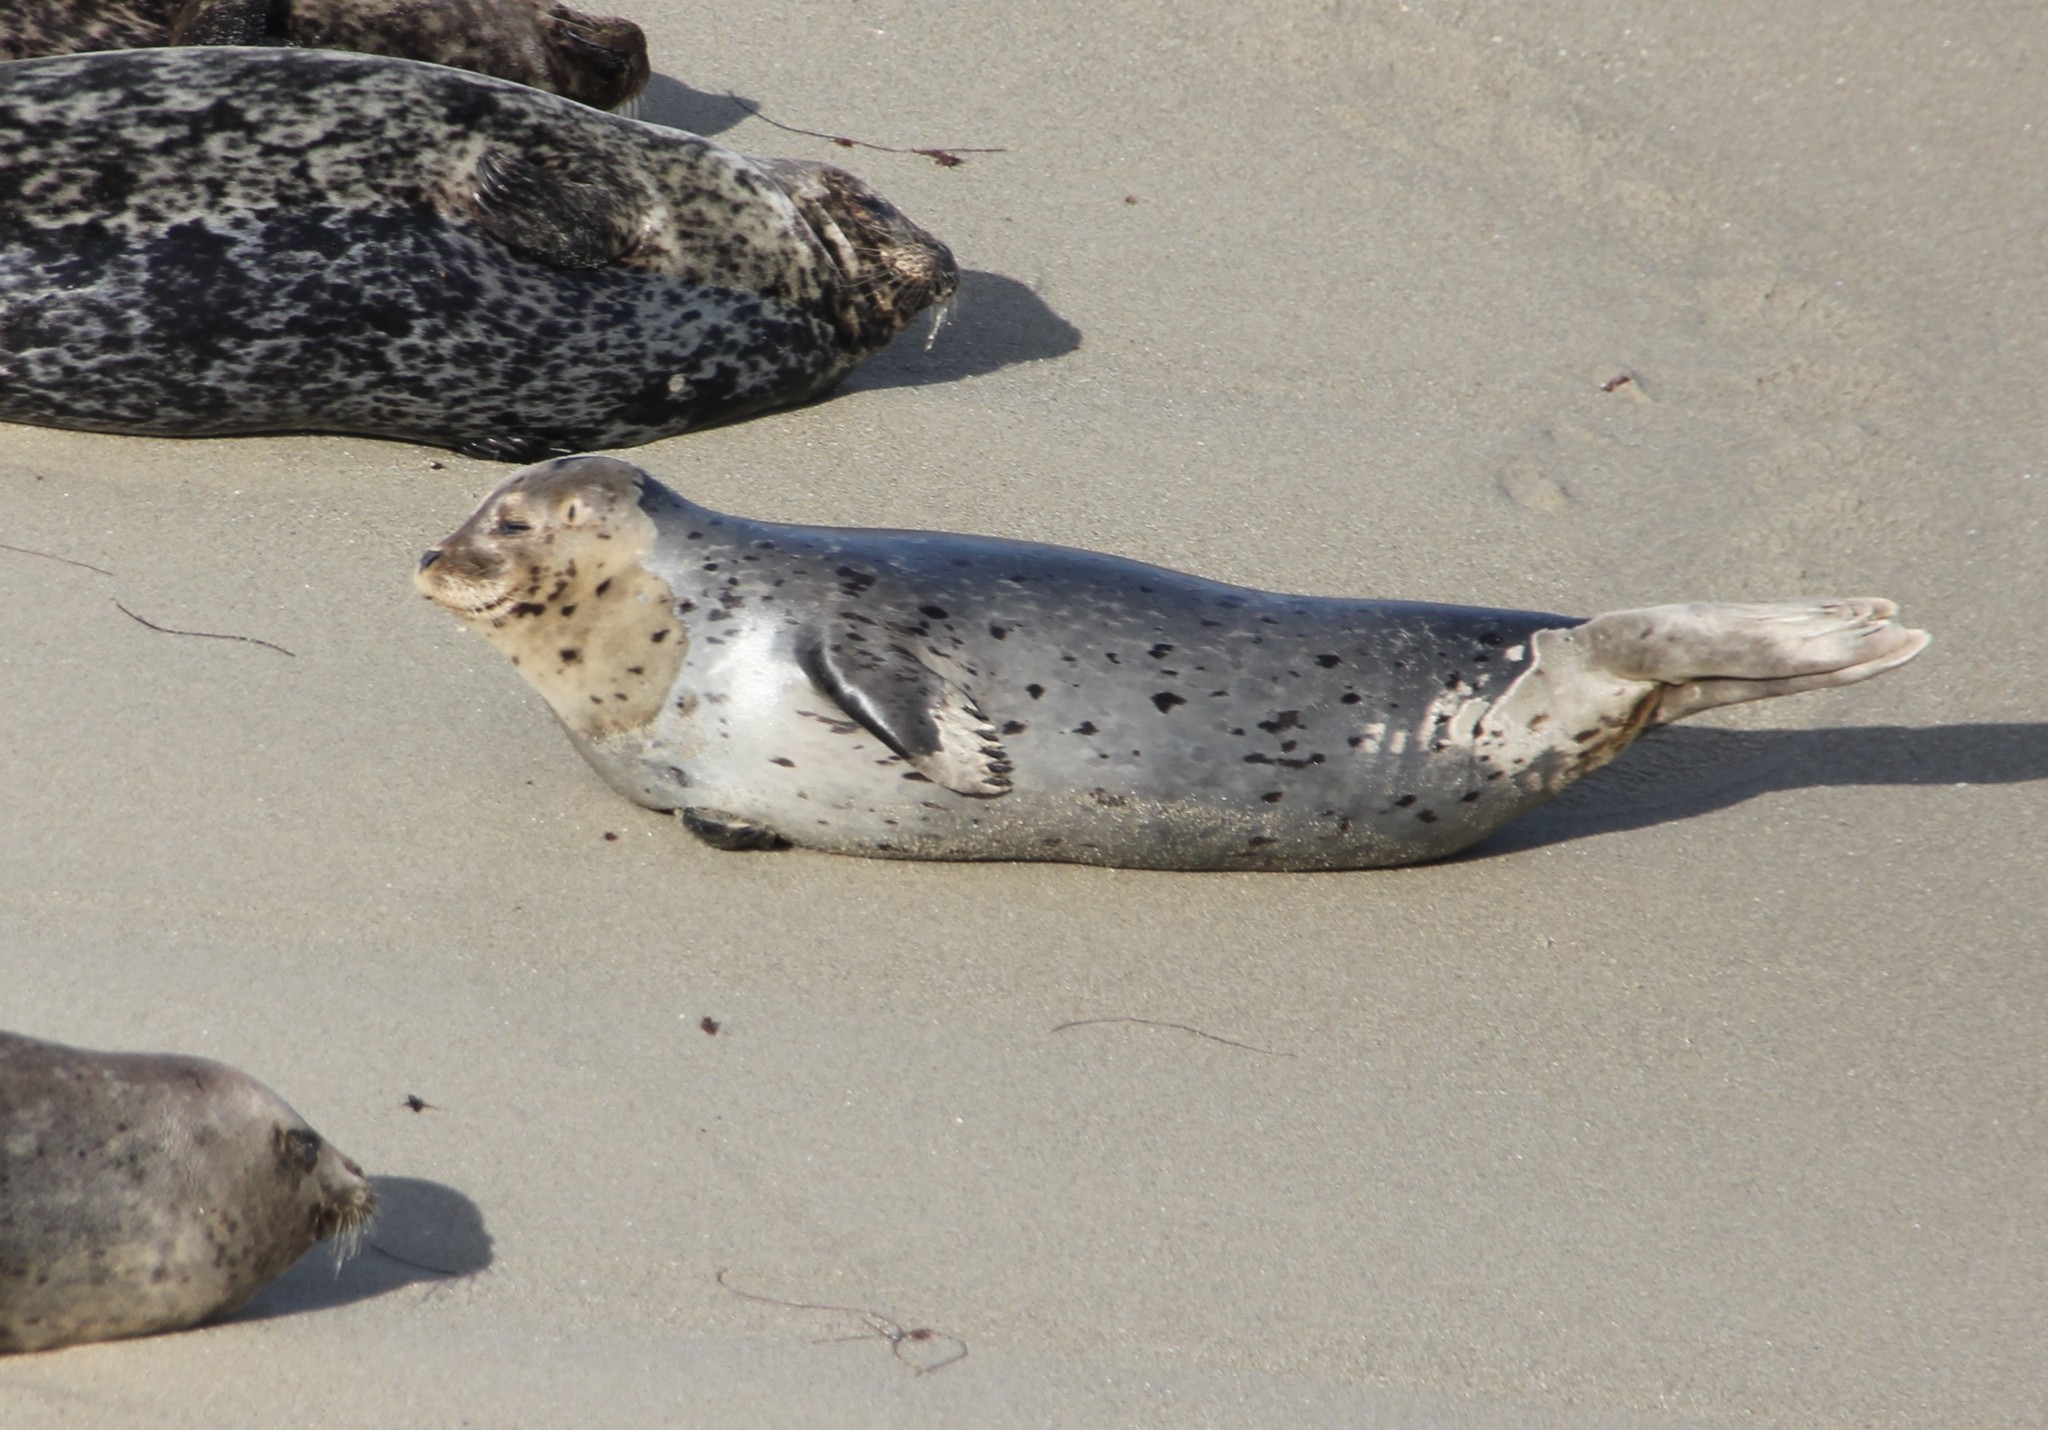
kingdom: Animalia
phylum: Chordata
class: Mammalia
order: Carnivora
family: Phocidae
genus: Phoca
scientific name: Phoca vitulina
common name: Harbor seal
